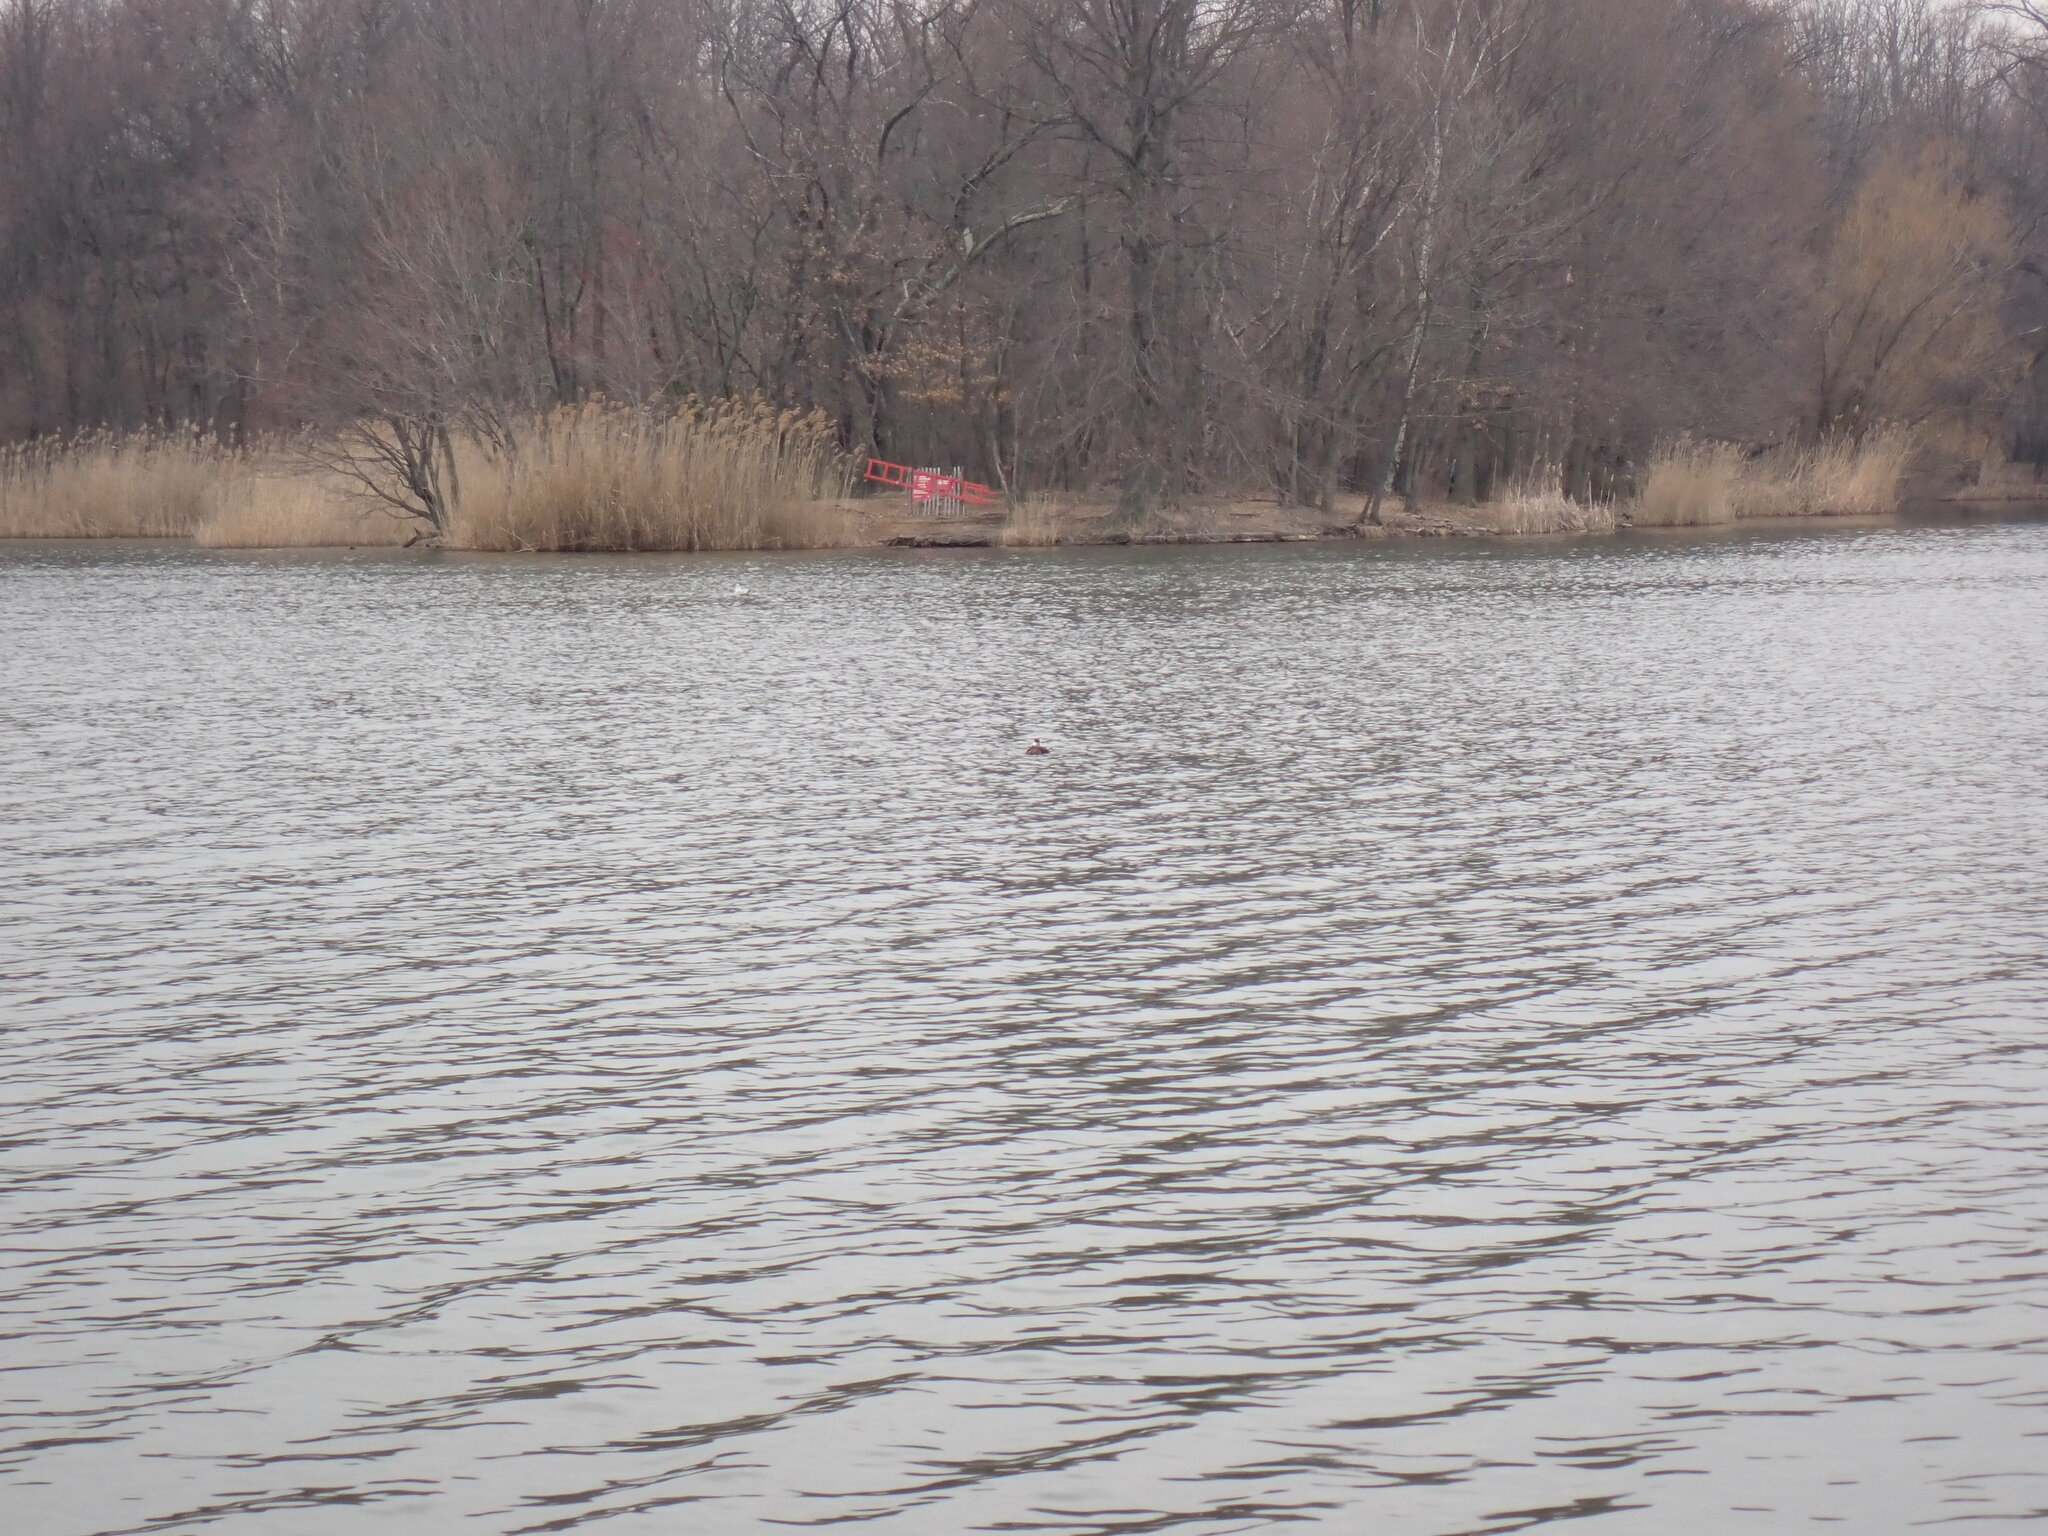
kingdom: Animalia
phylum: Chordata
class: Aves
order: Anseriformes
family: Anatidae
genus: Oxyura
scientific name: Oxyura jamaicensis
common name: Ruddy duck
